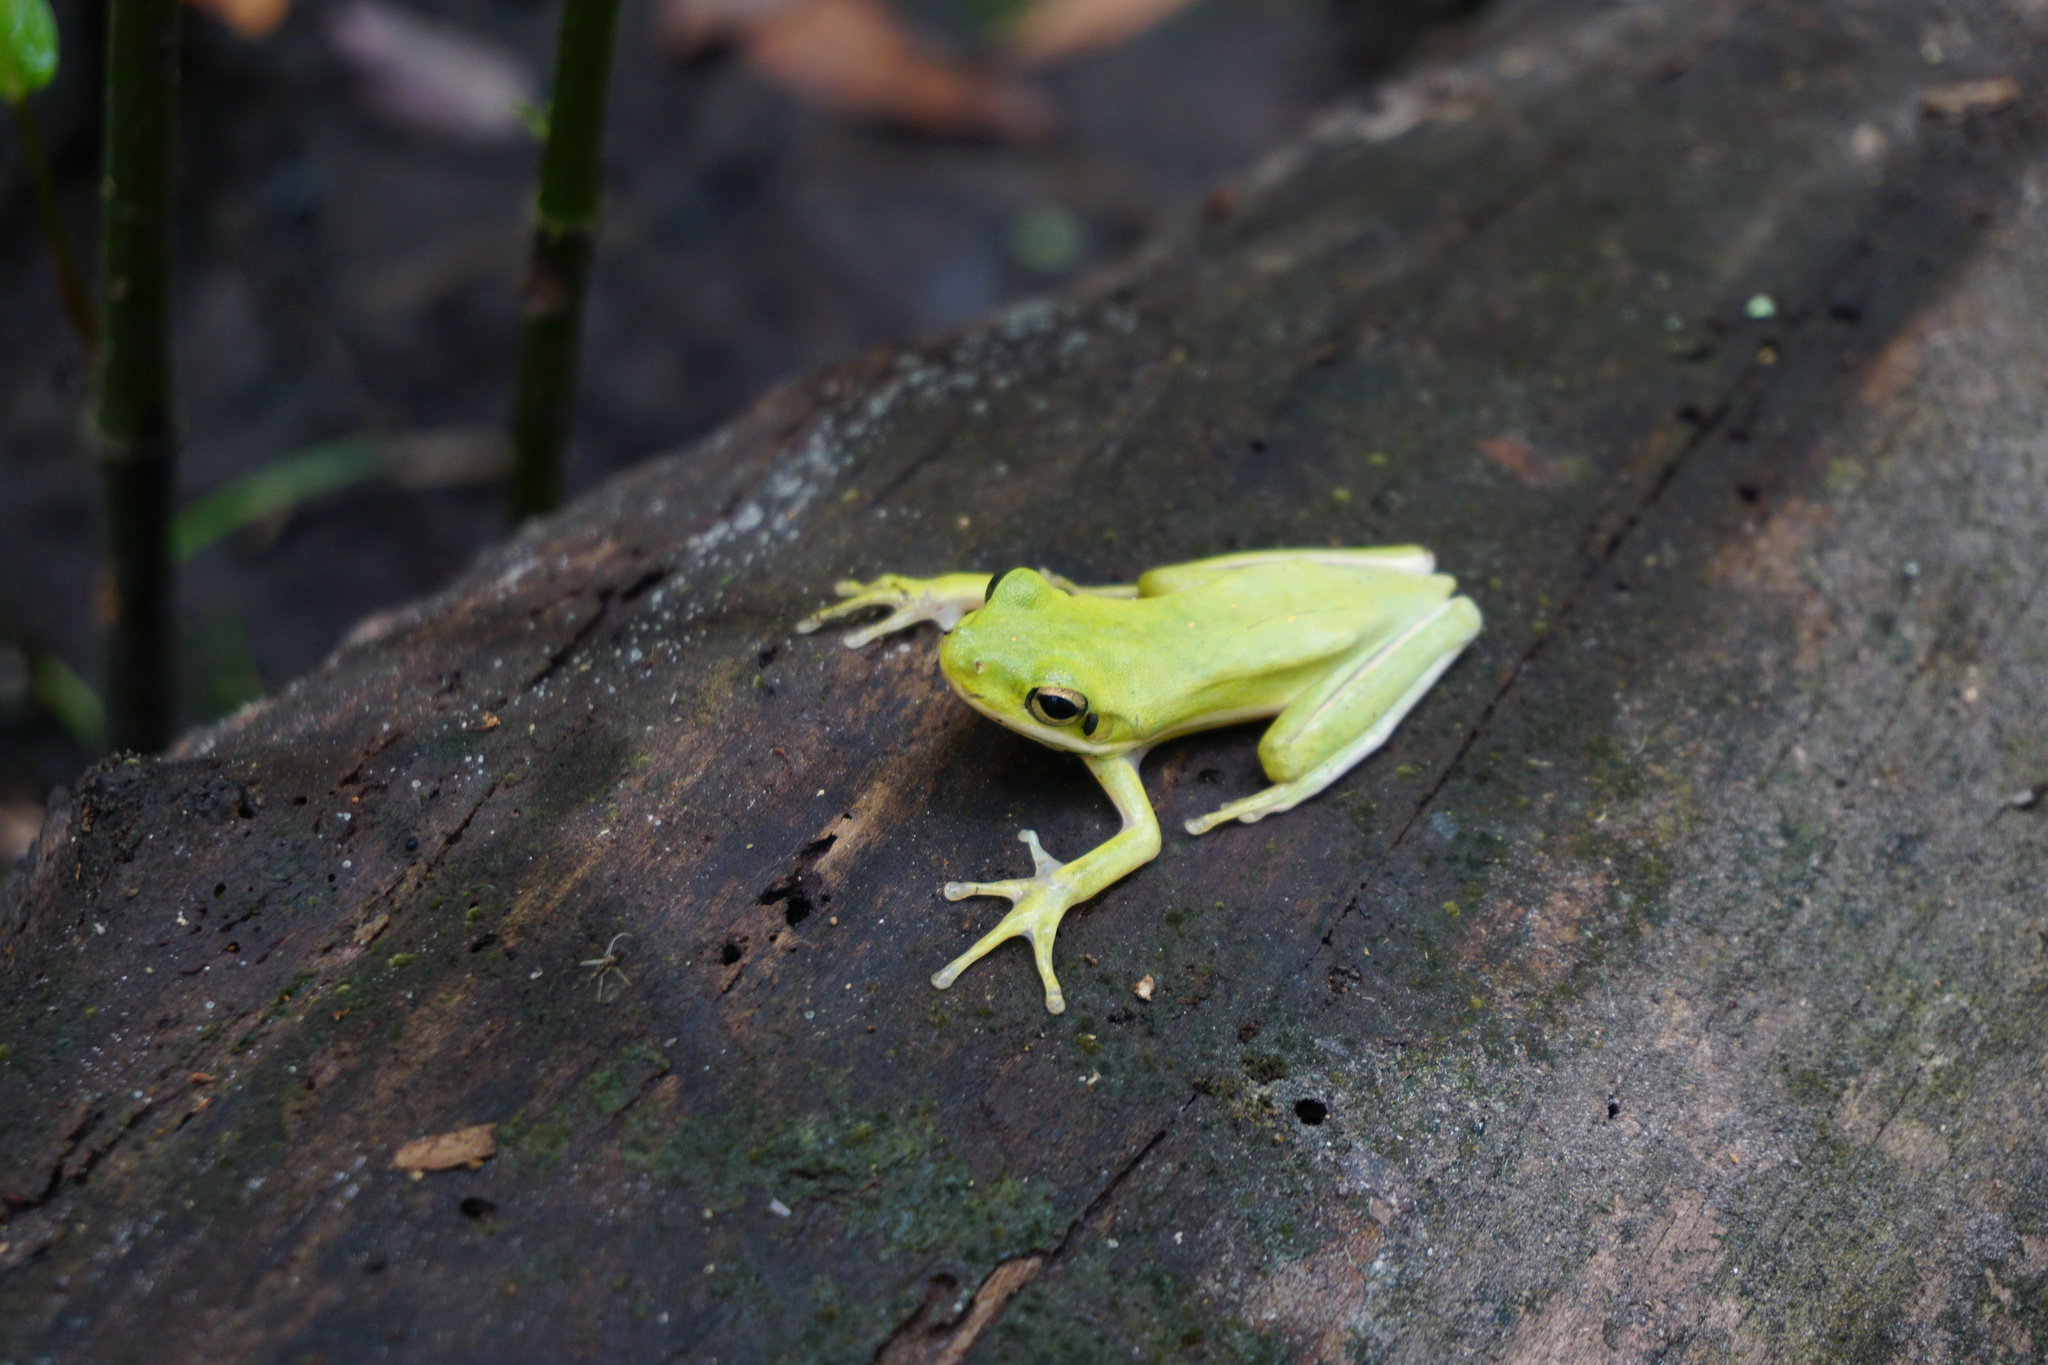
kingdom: Animalia
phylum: Chordata
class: Amphibia
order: Anura
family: Hylidae
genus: Dryophytes
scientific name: Dryophytes cinereus
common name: Green treefrog
